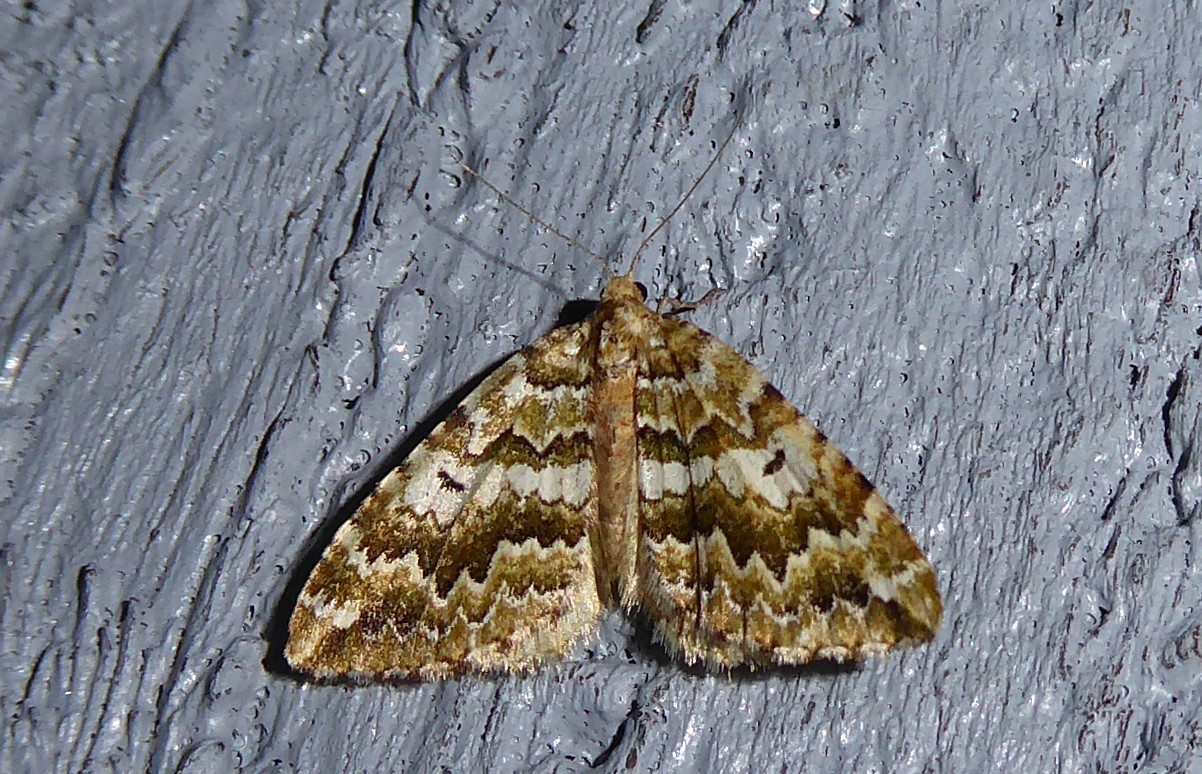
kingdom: Animalia
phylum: Arthropoda
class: Insecta
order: Lepidoptera
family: Geometridae
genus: Asaphodes
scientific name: Asaphodes beata
